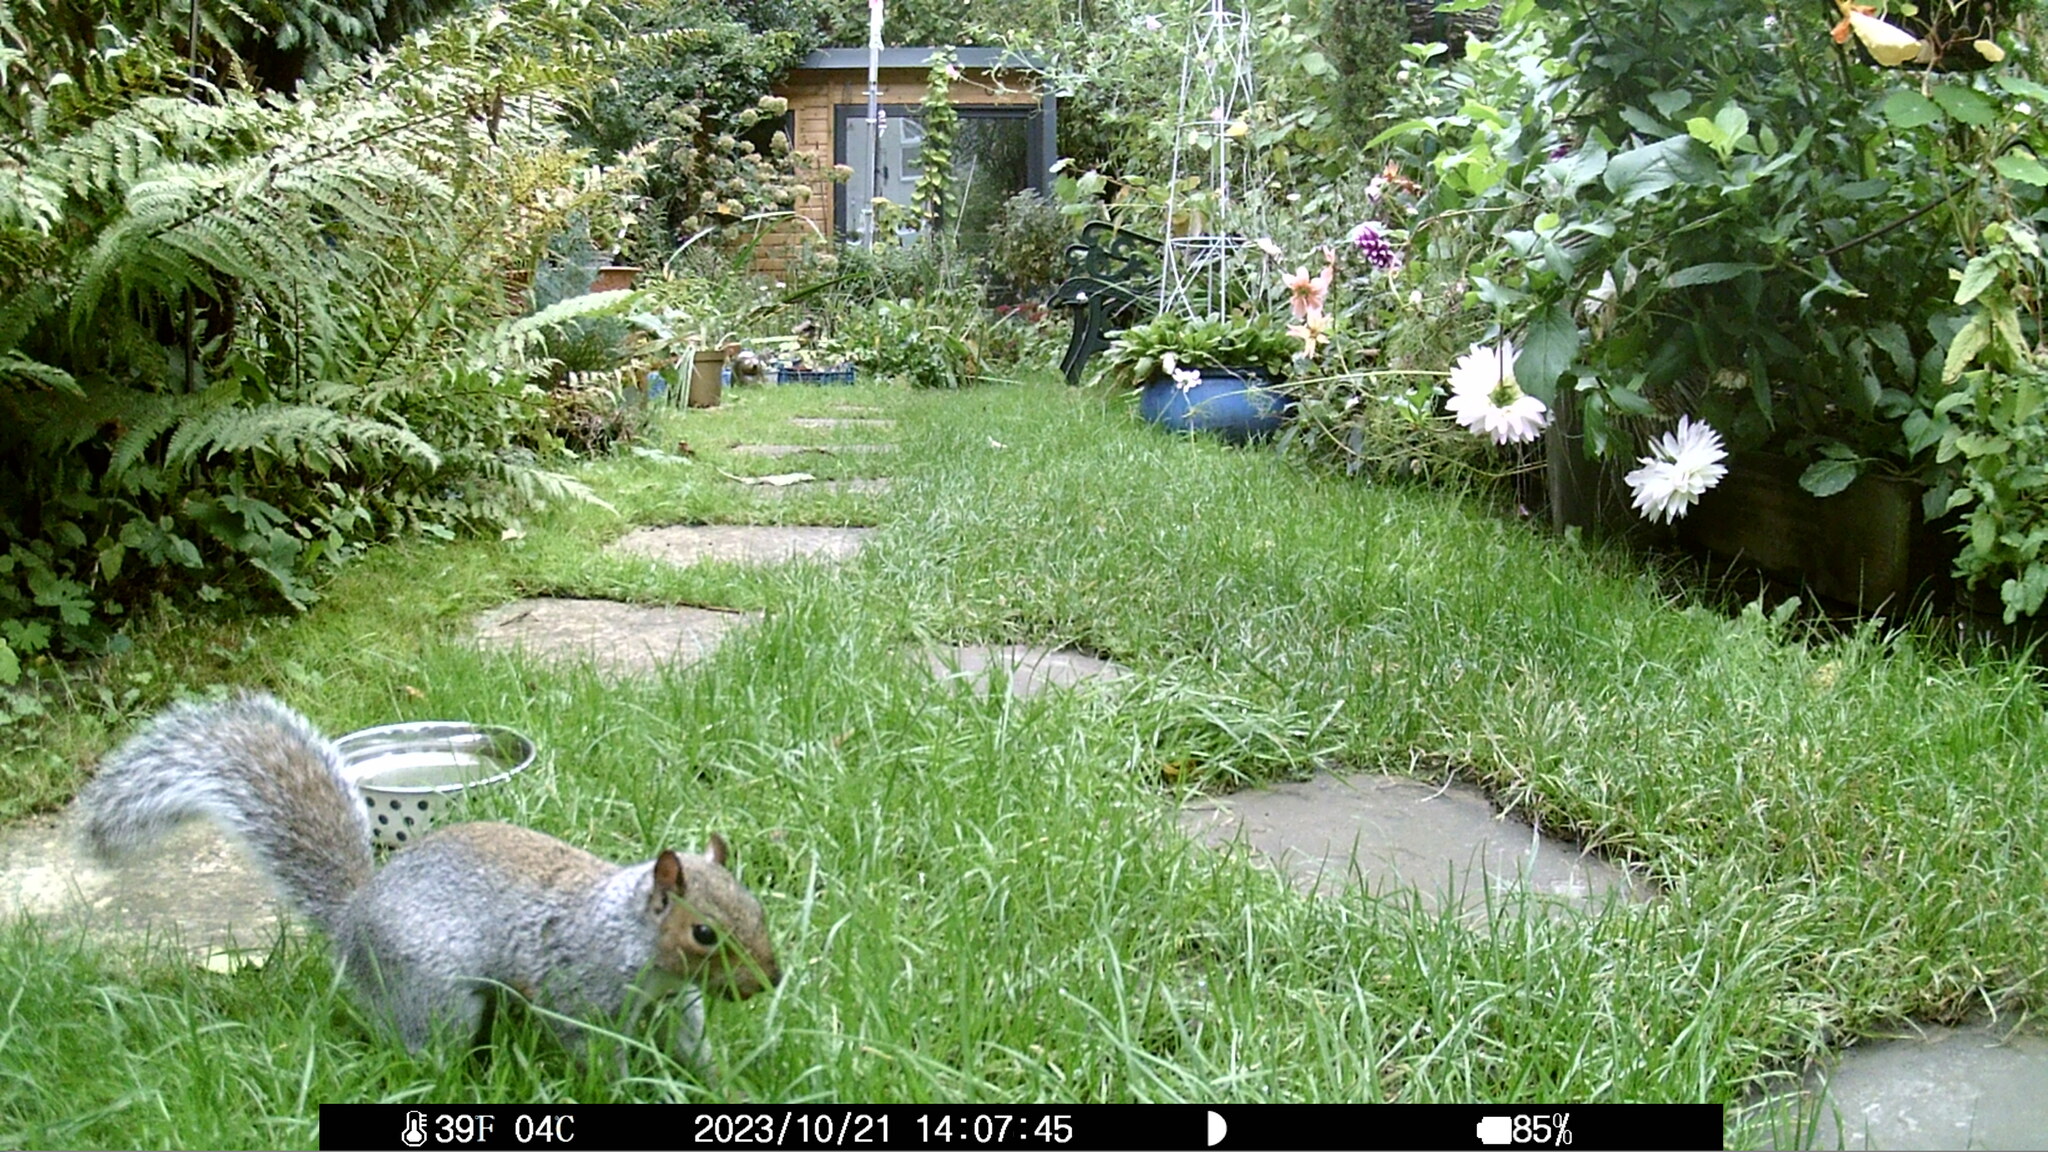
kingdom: Animalia
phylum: Chordata
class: Mammalia
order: Rodentia
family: Sciuridae
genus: Sciurus
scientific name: Sciurus carolinensis
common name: Eastern gray squirrel
